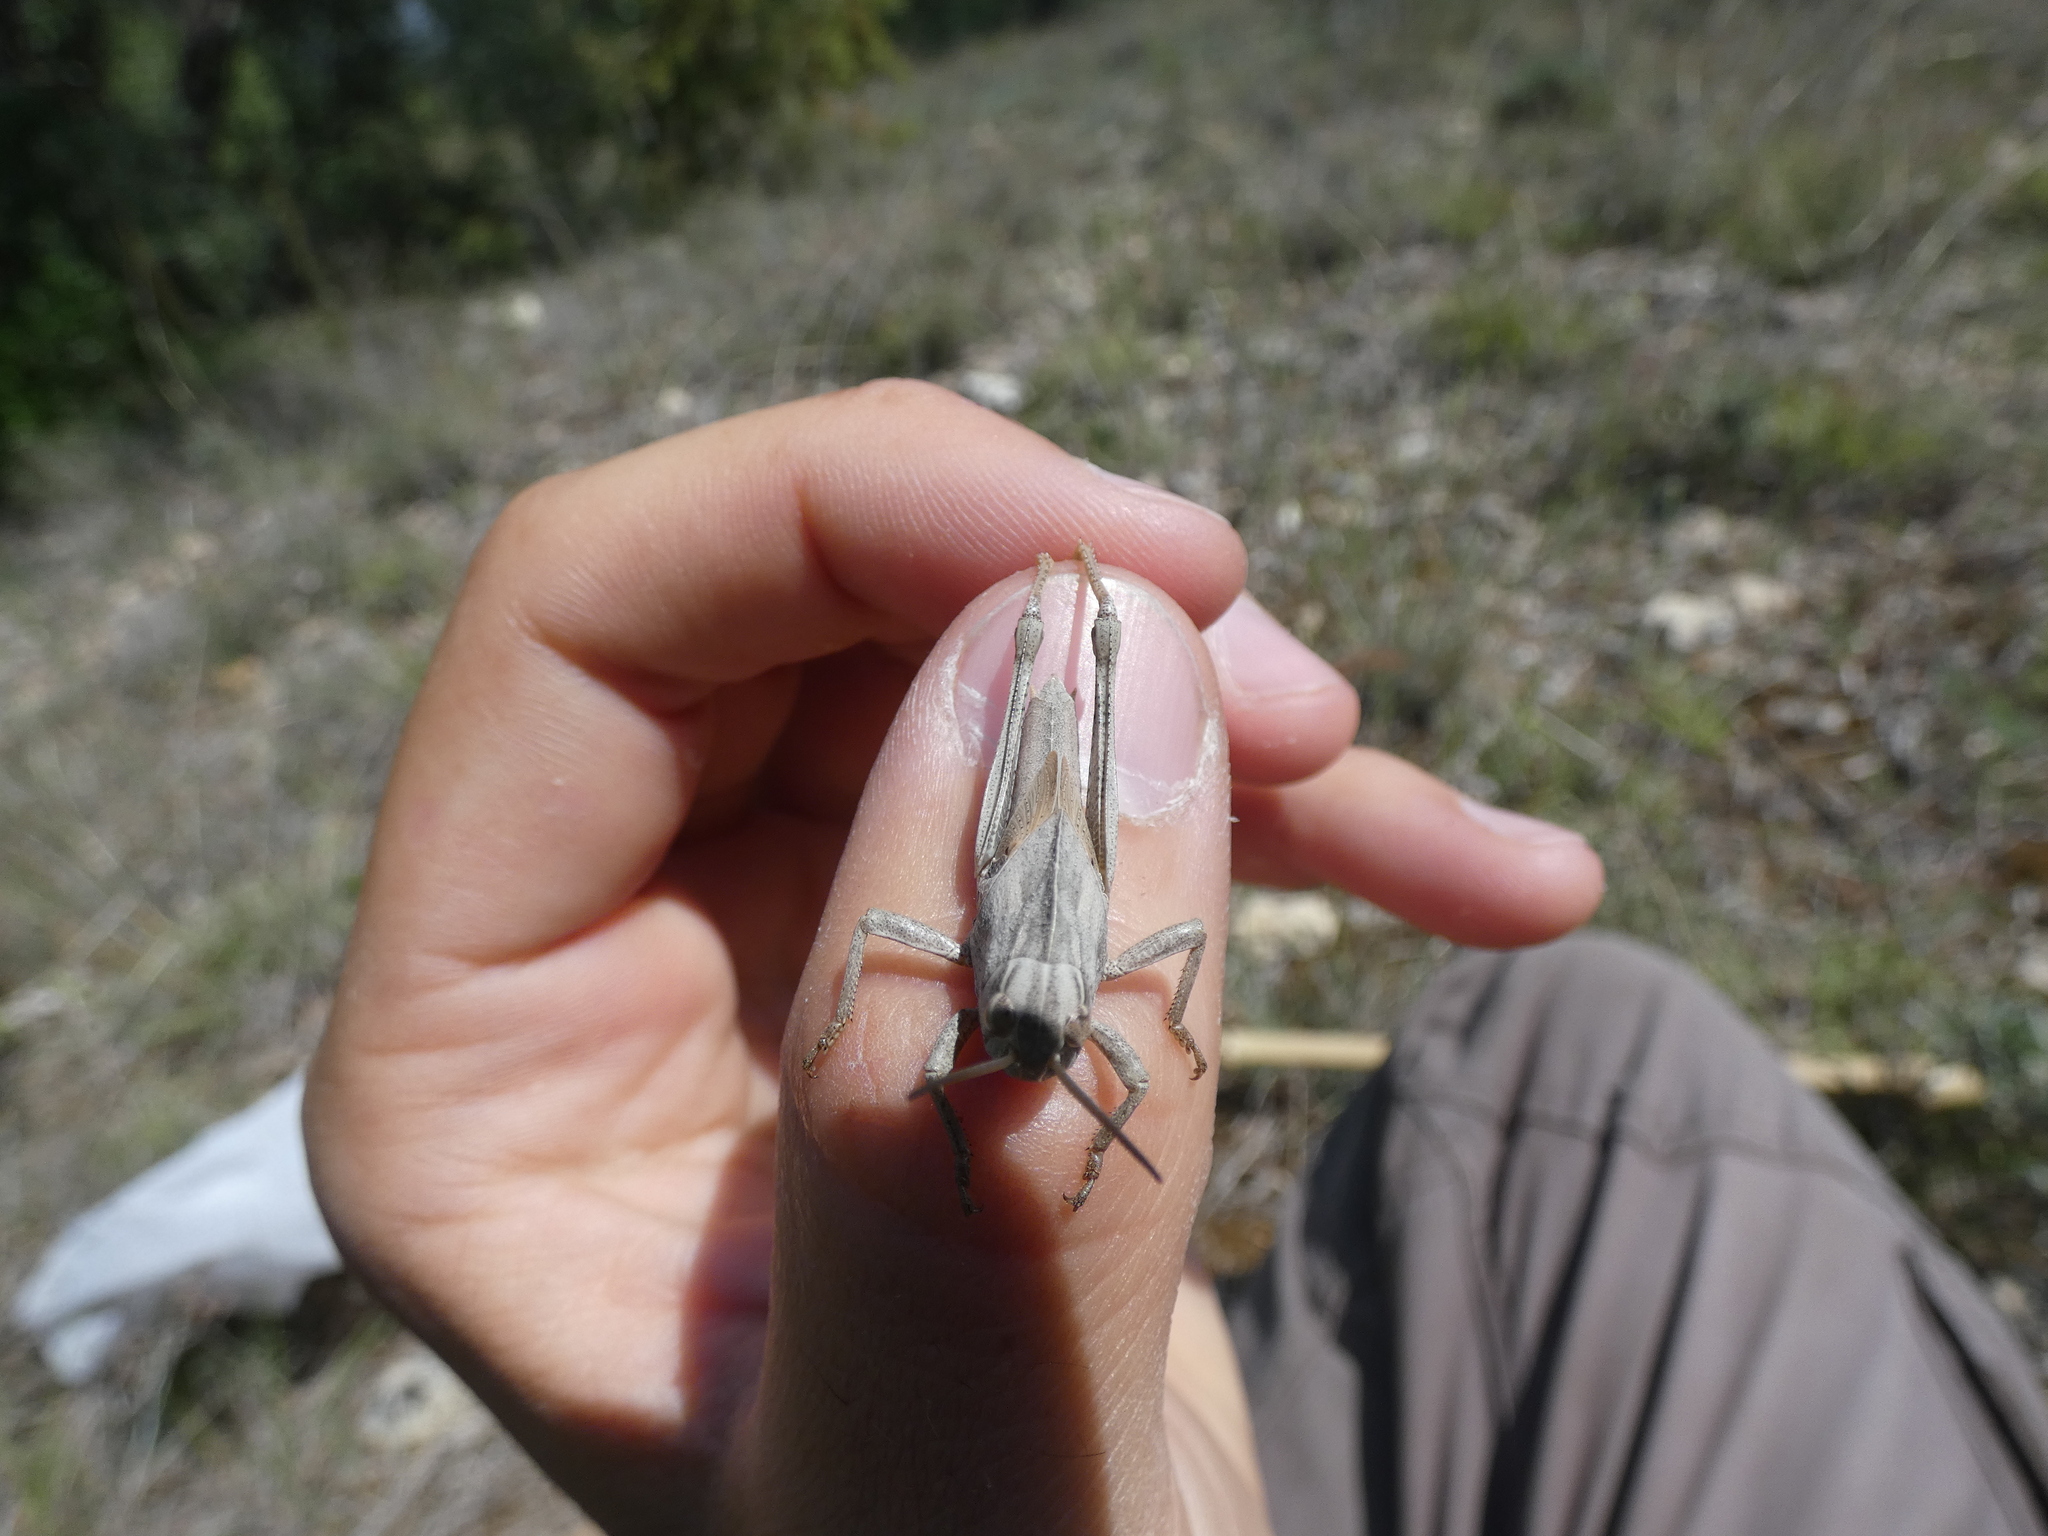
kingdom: Animalia
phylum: Arthropoda
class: Insecta
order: Orthoptera
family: Acrididae
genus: Locusta
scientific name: Locusta migratoria
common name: Migratory locust
